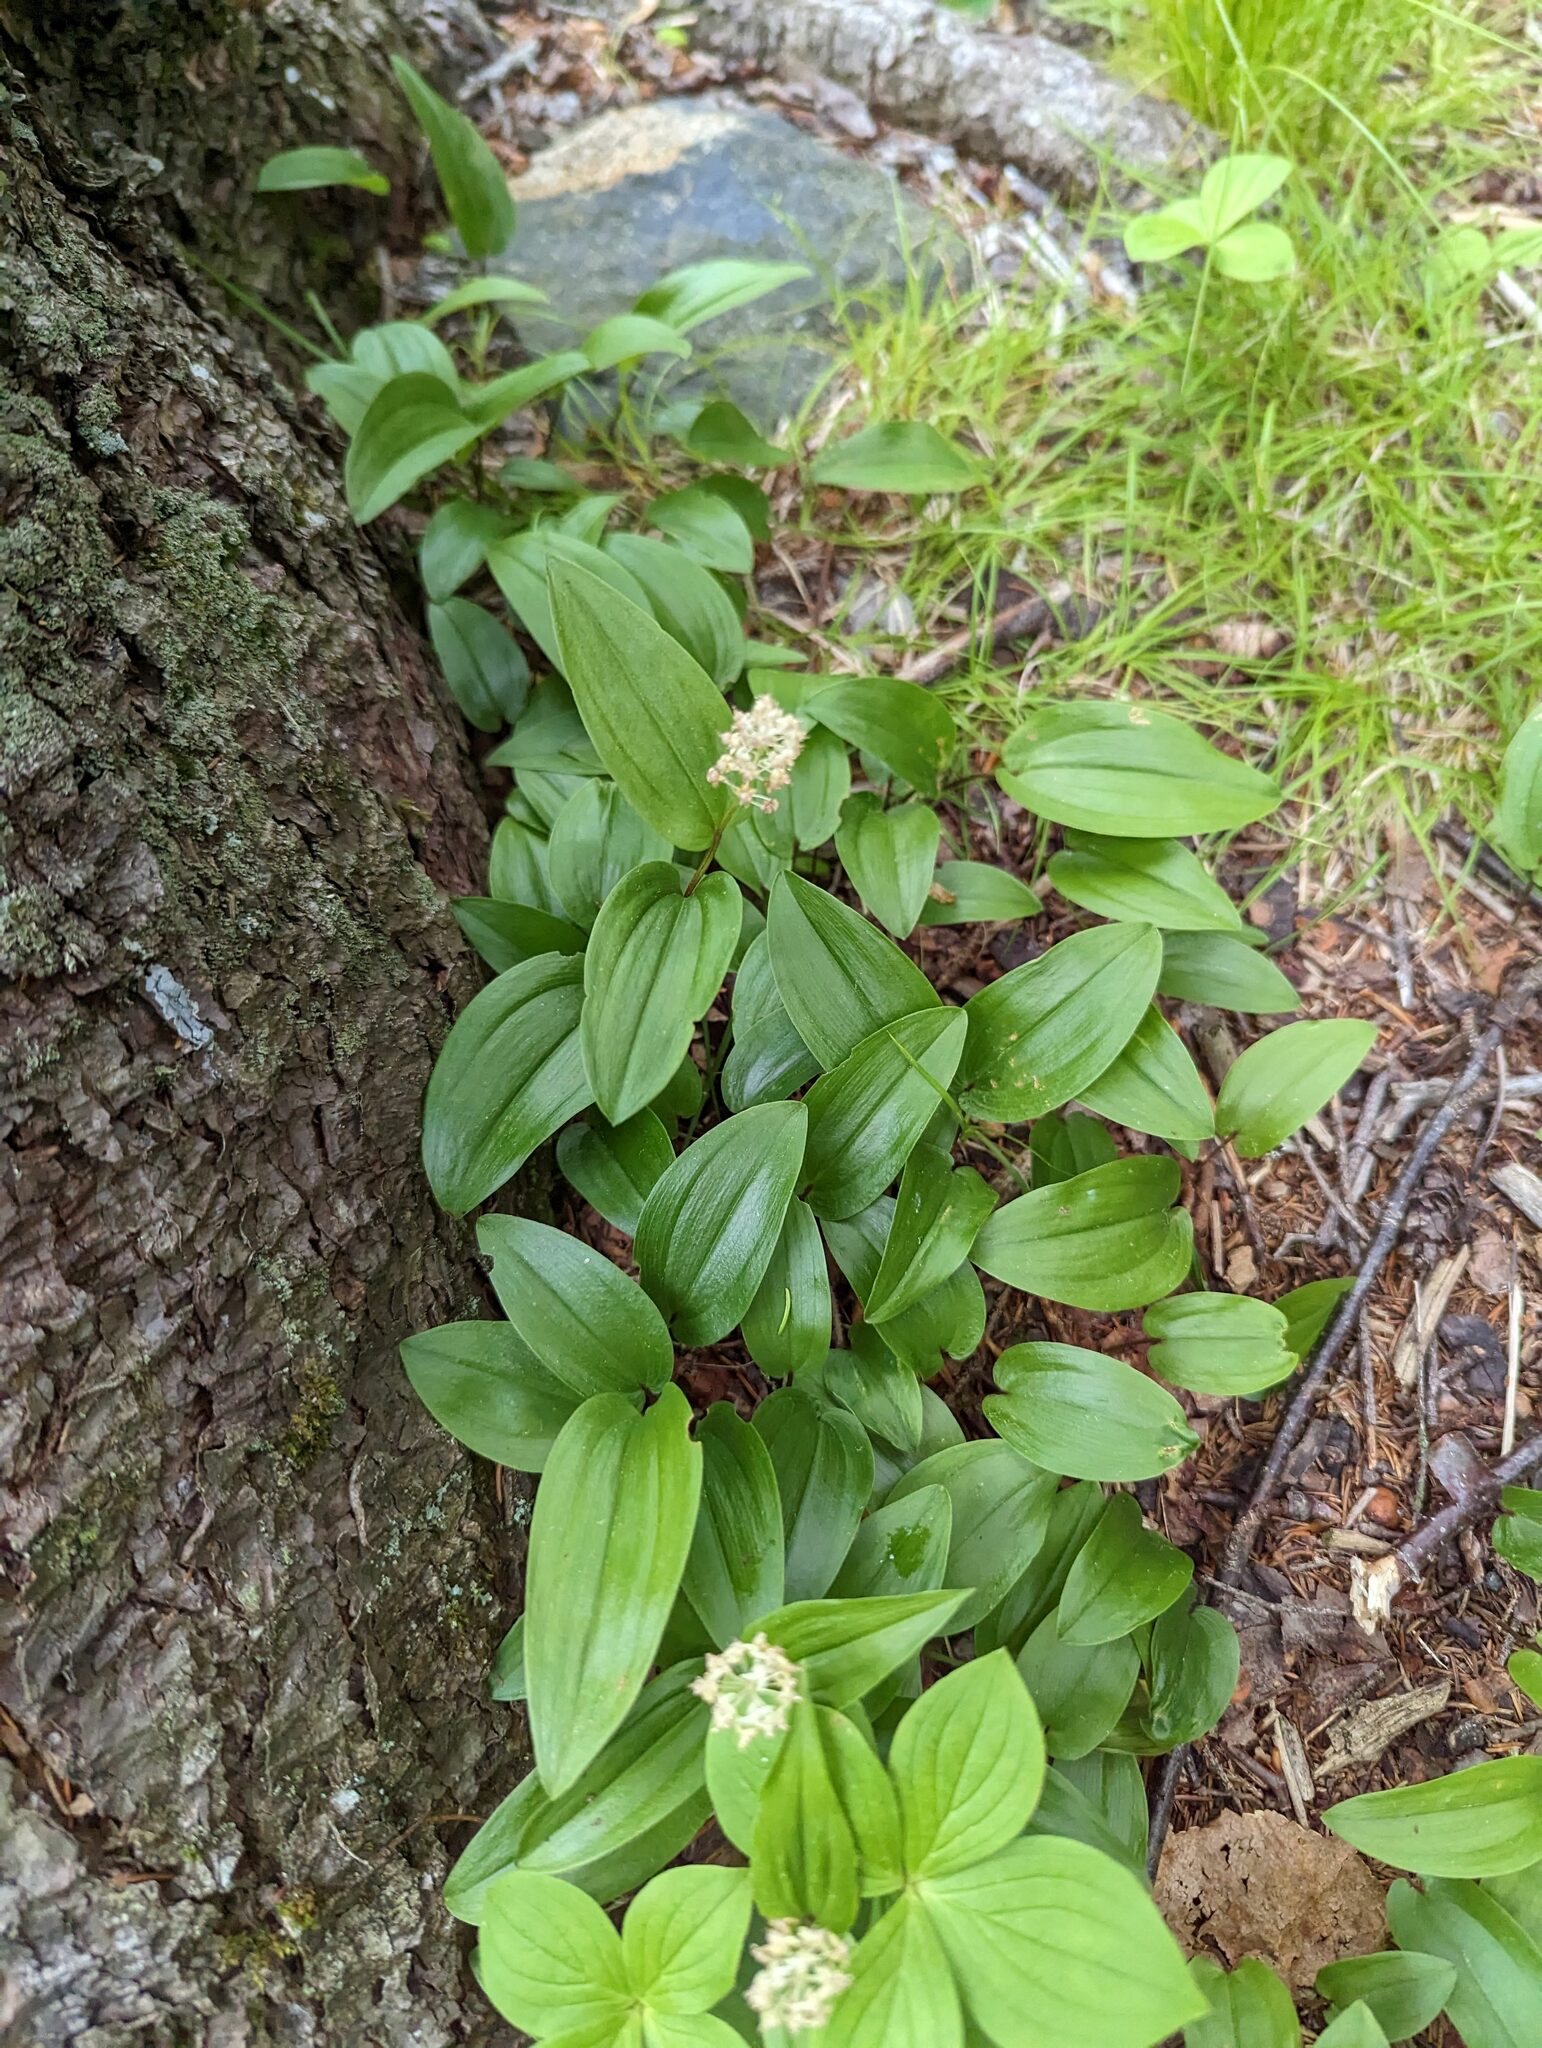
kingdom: Plantae
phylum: Tracheophyta
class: Liliopsida
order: Asparagales
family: Asparagaceae
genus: Maianthemum
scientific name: Maianthemum canadense
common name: False lily-of-the-valley
